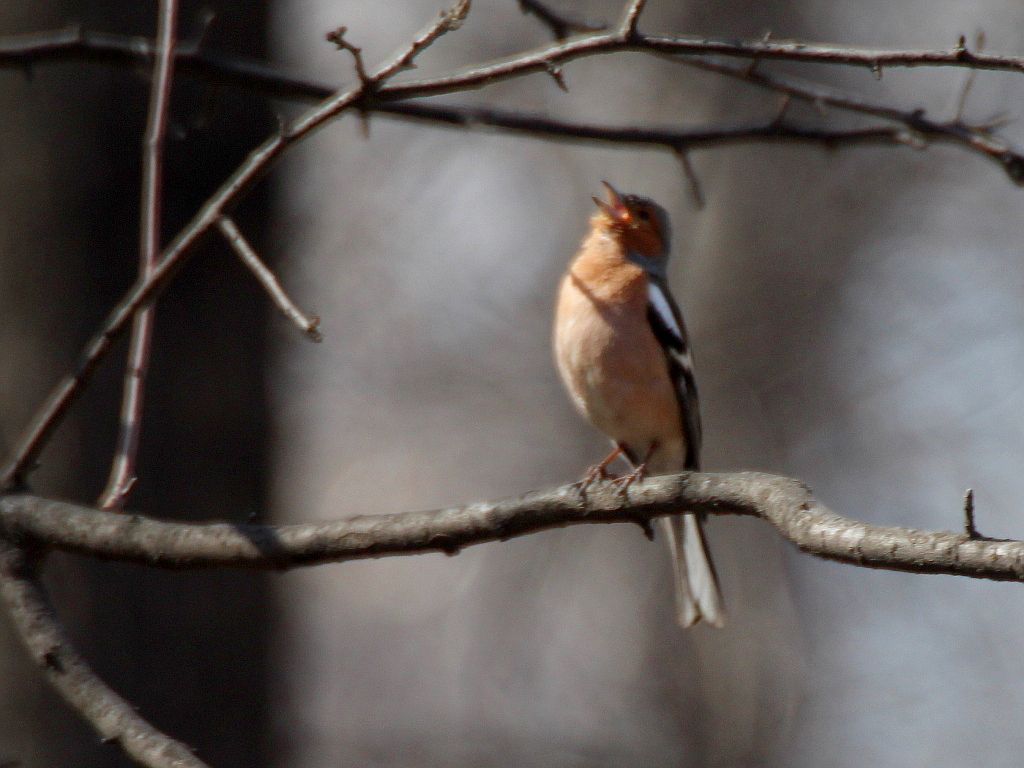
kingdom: Animalia
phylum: Chordata
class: Aves
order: Passeriformes
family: Fringillidae
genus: Fringilla
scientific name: Fringilla coelebs
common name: Common chaffinch
